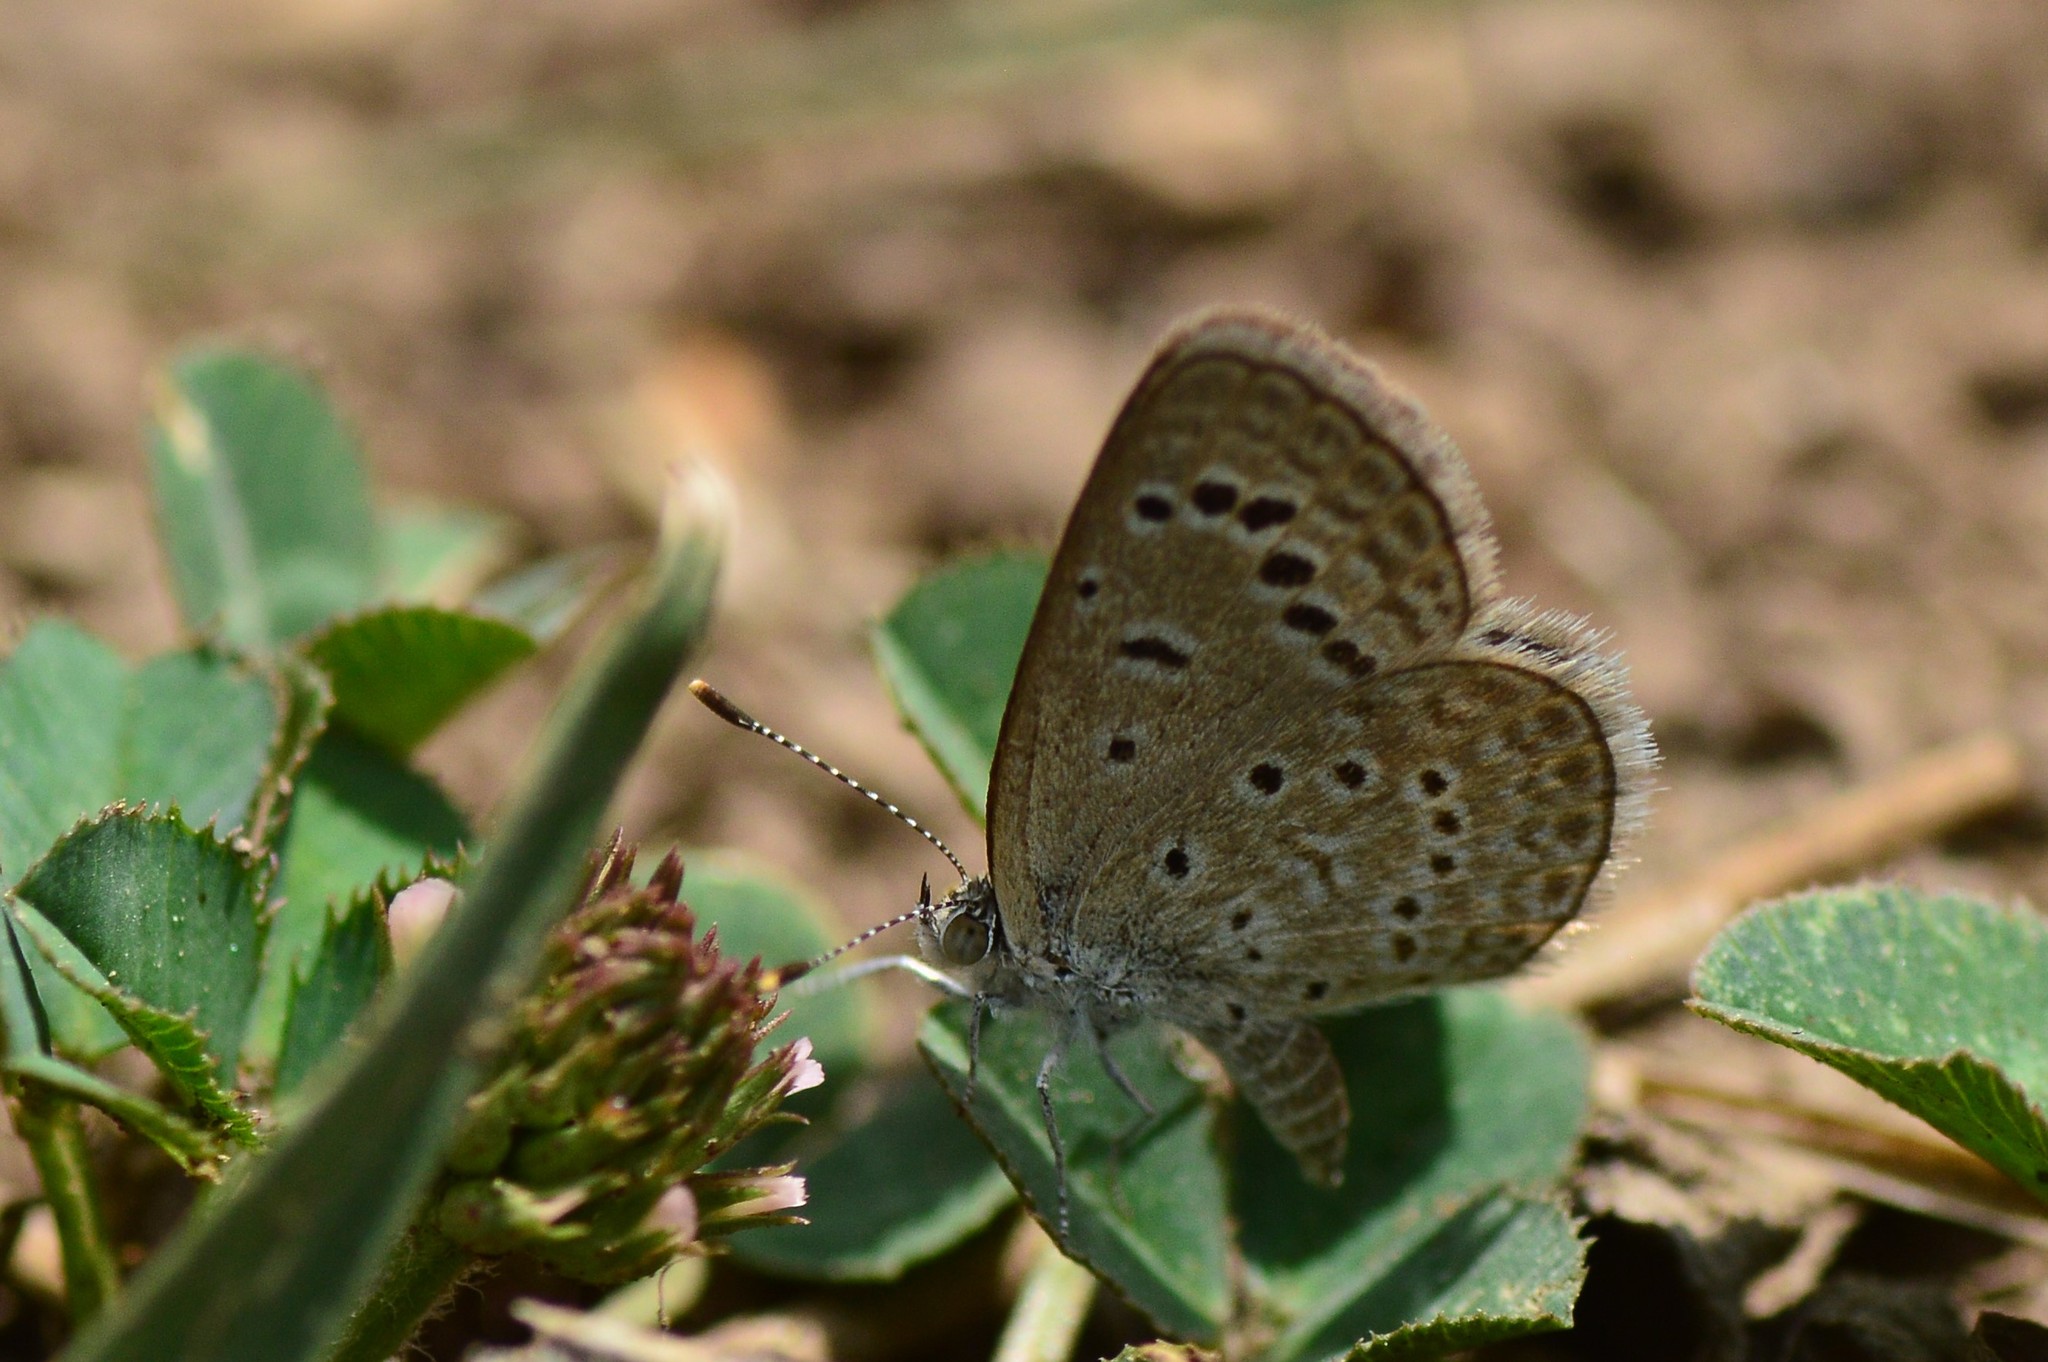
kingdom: Animalia
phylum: Arthropoda
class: Insecta
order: Lepidoptera
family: Lycaenidae
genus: Zizeeria
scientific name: Zizeeria karsandra
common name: Dark grass blue
